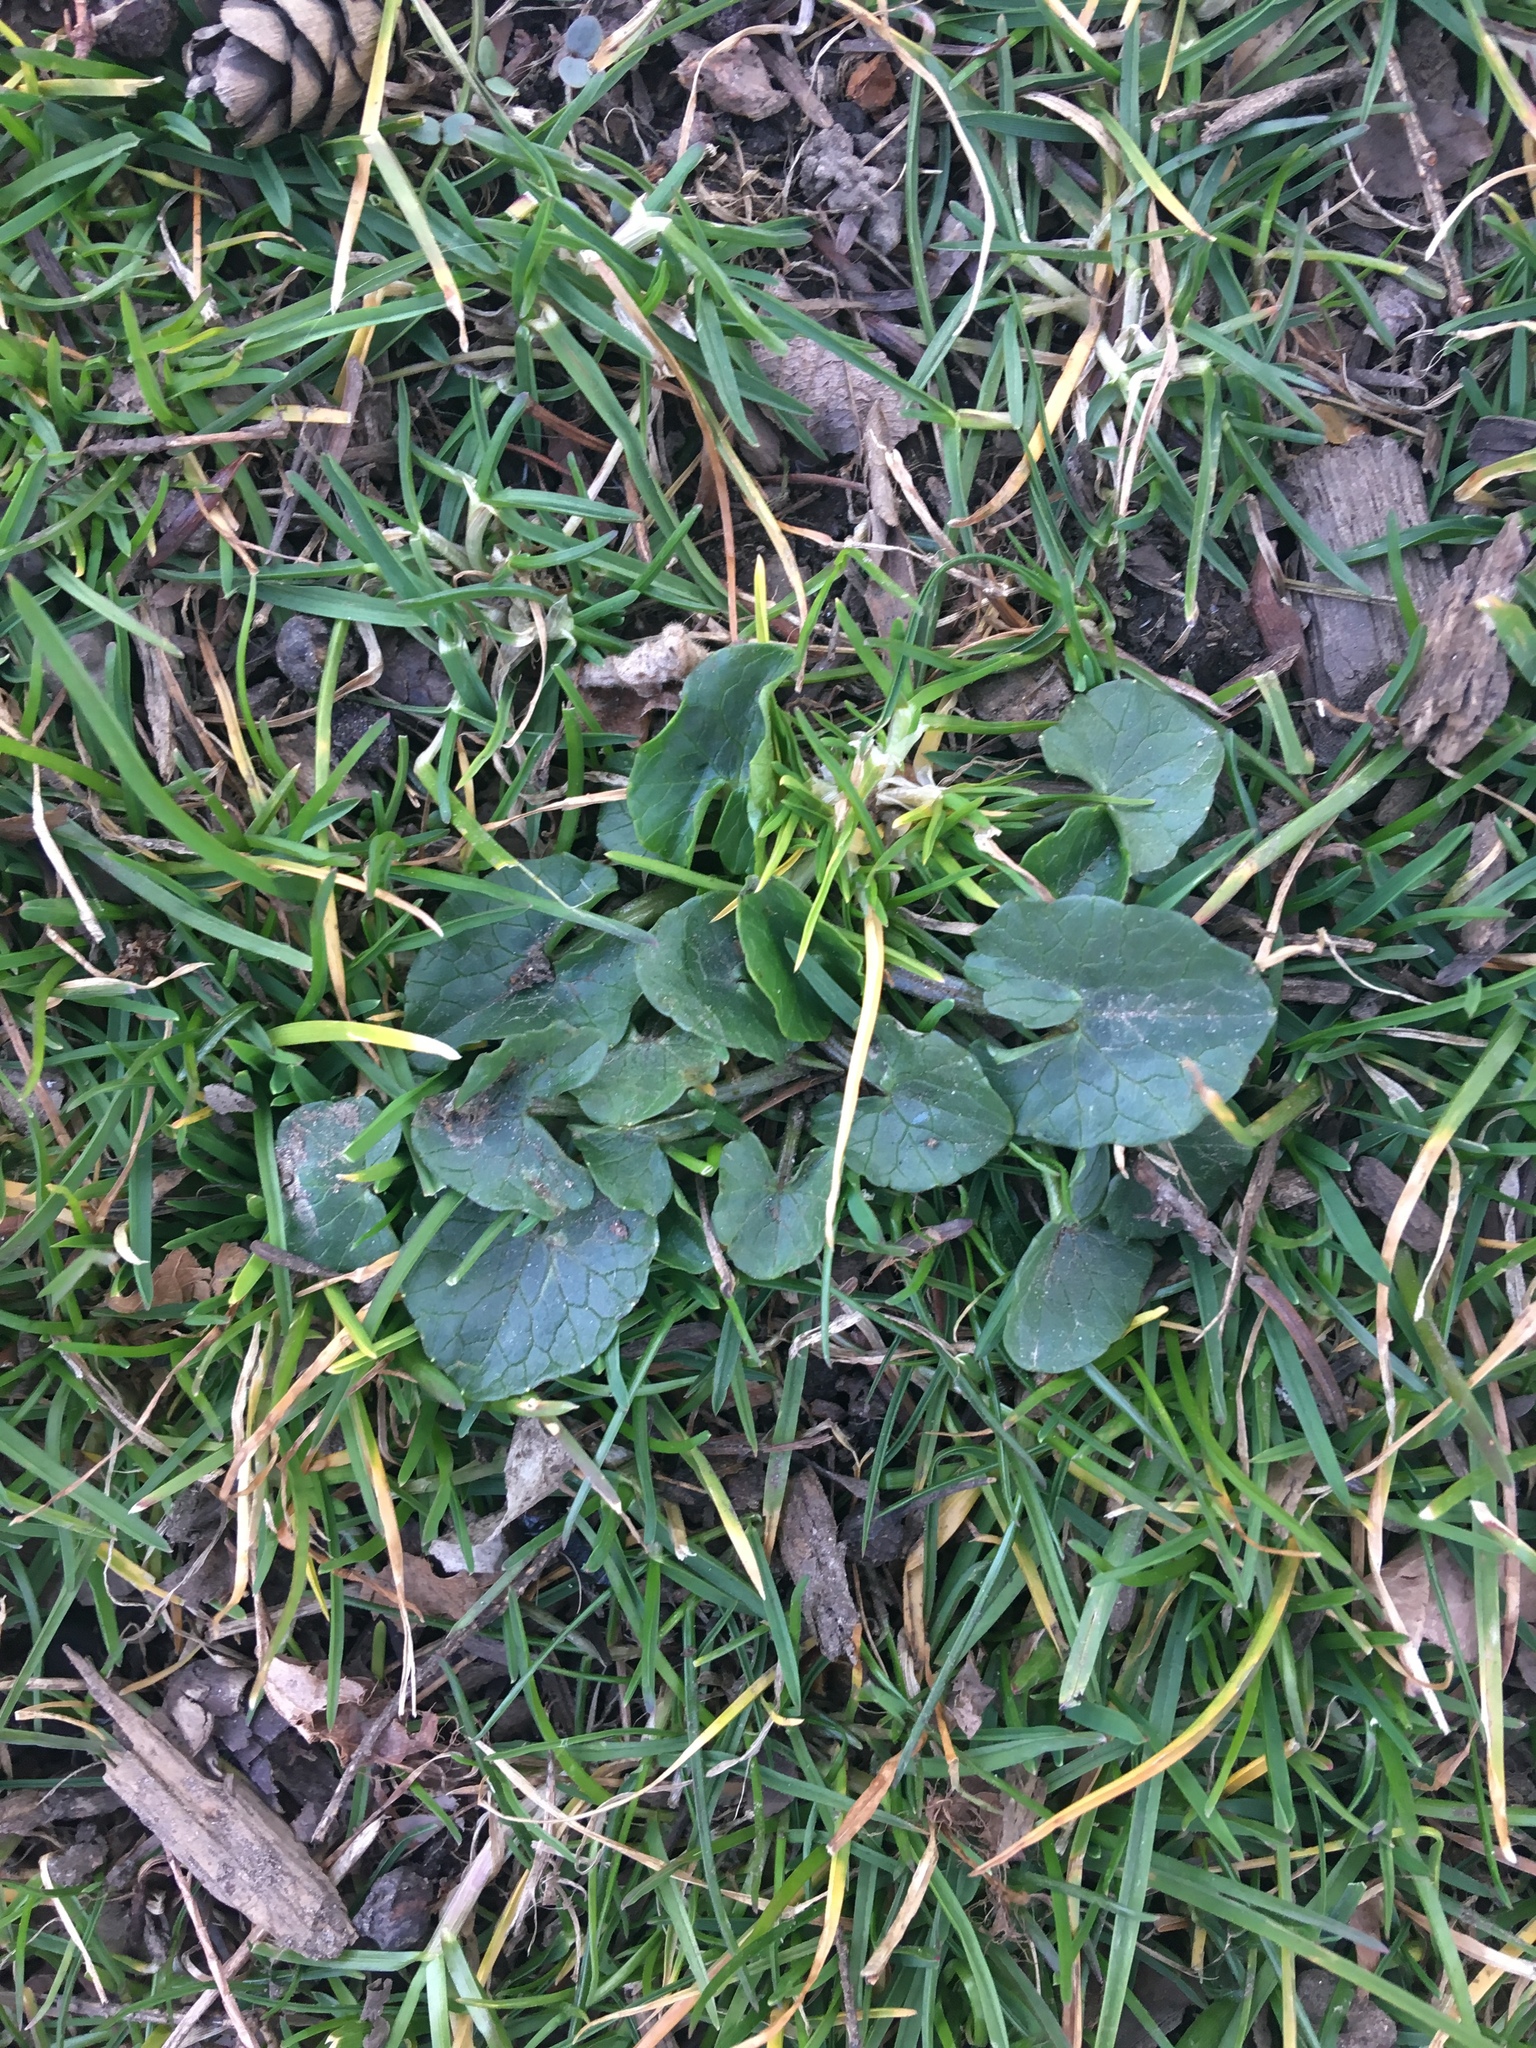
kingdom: Plantae
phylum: Tracheophyta
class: Magnoliopsida
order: Ranunculales
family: Ranunculaceae
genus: Ficaria
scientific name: Ficaria verna
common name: Lesser celandine
